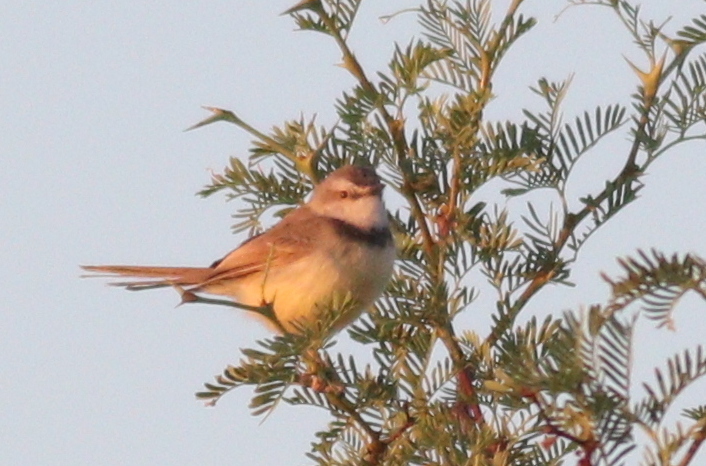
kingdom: Animalia
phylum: Chordata
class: Aves
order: Passeriformes
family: Cisticolidae
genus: Prinia
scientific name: Prinia flavicans
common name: Black-chested prinia
